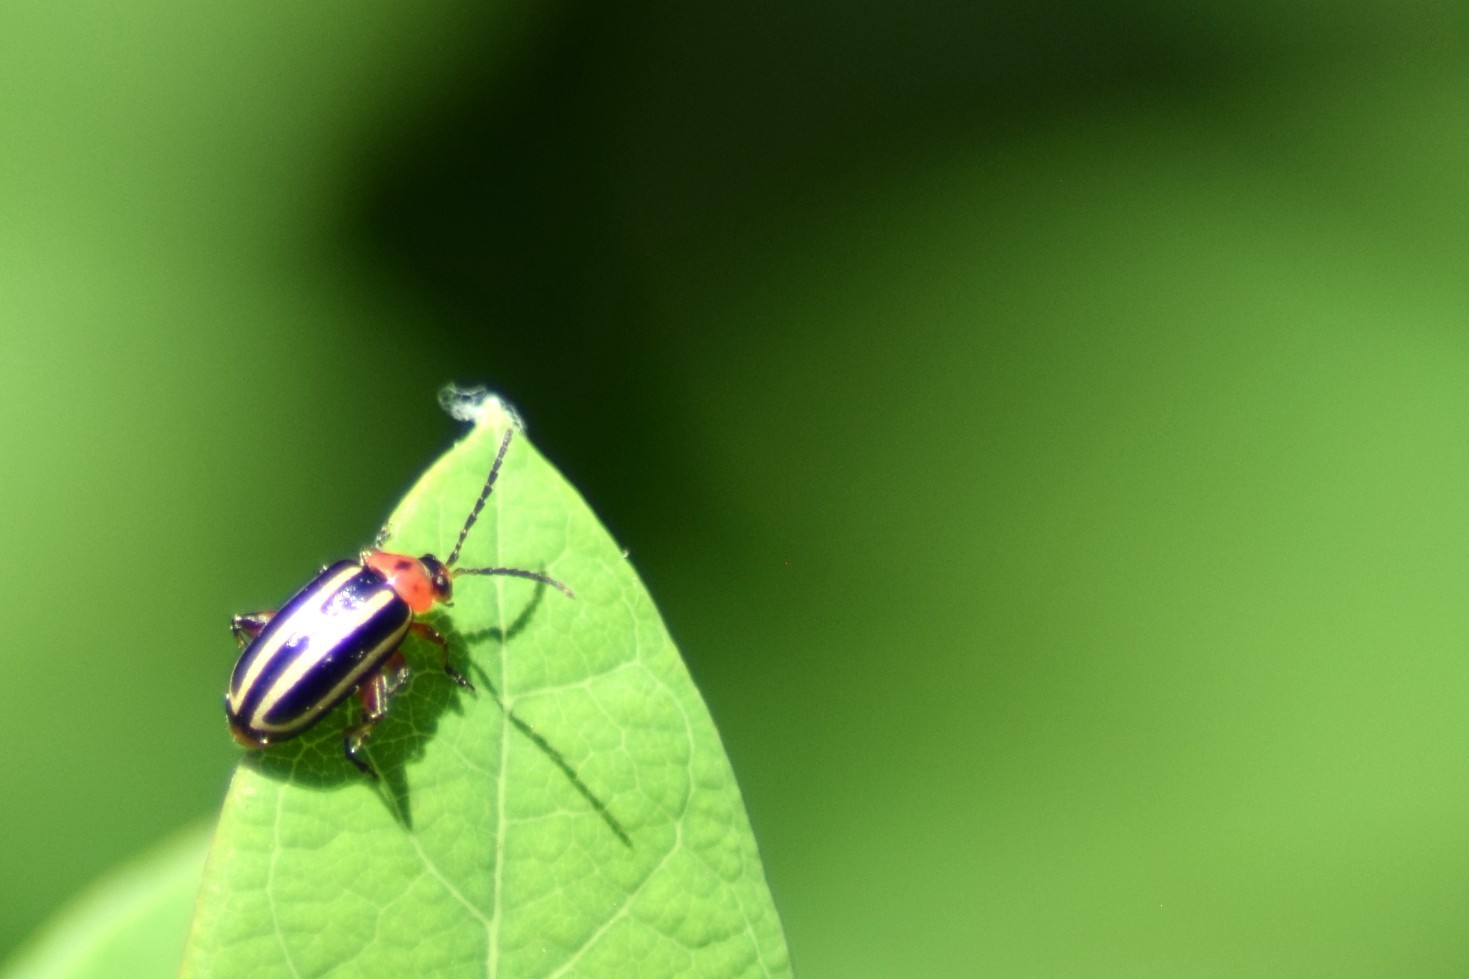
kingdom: Animalia
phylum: Arthropoda
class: Insecta
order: Coleoptera
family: Chrysomelidae
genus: Disonycha
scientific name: Disonycha glabrata
